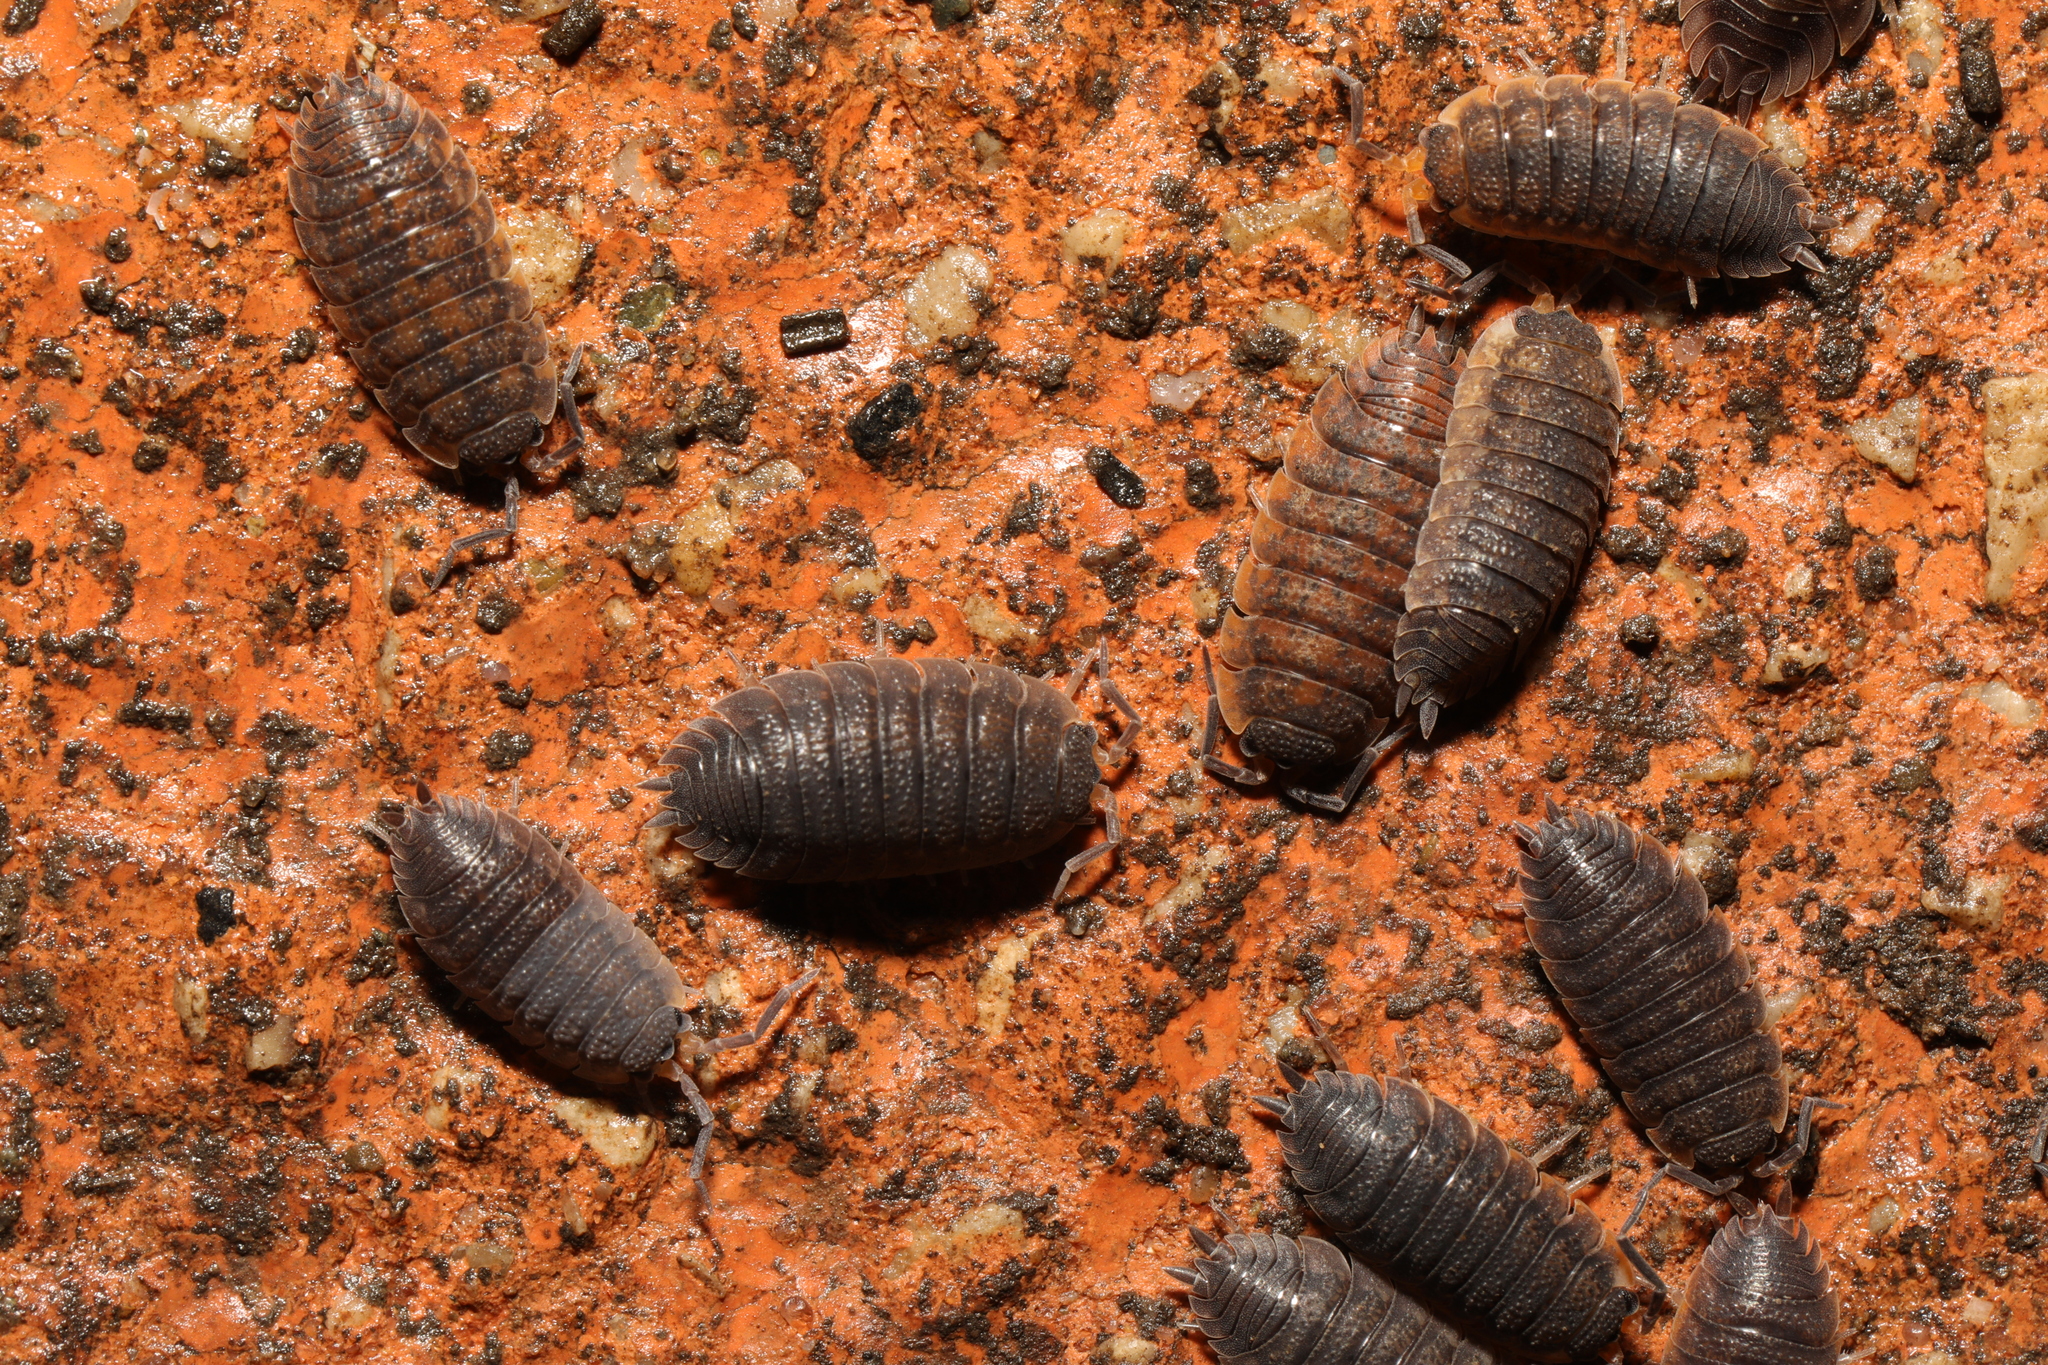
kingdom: Animalia
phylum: Arthropoda
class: Malacostraca
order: Isopoda
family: Porcellionidae
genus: Porcellio
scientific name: Porcellio scaber
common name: Common rough woodlouse
